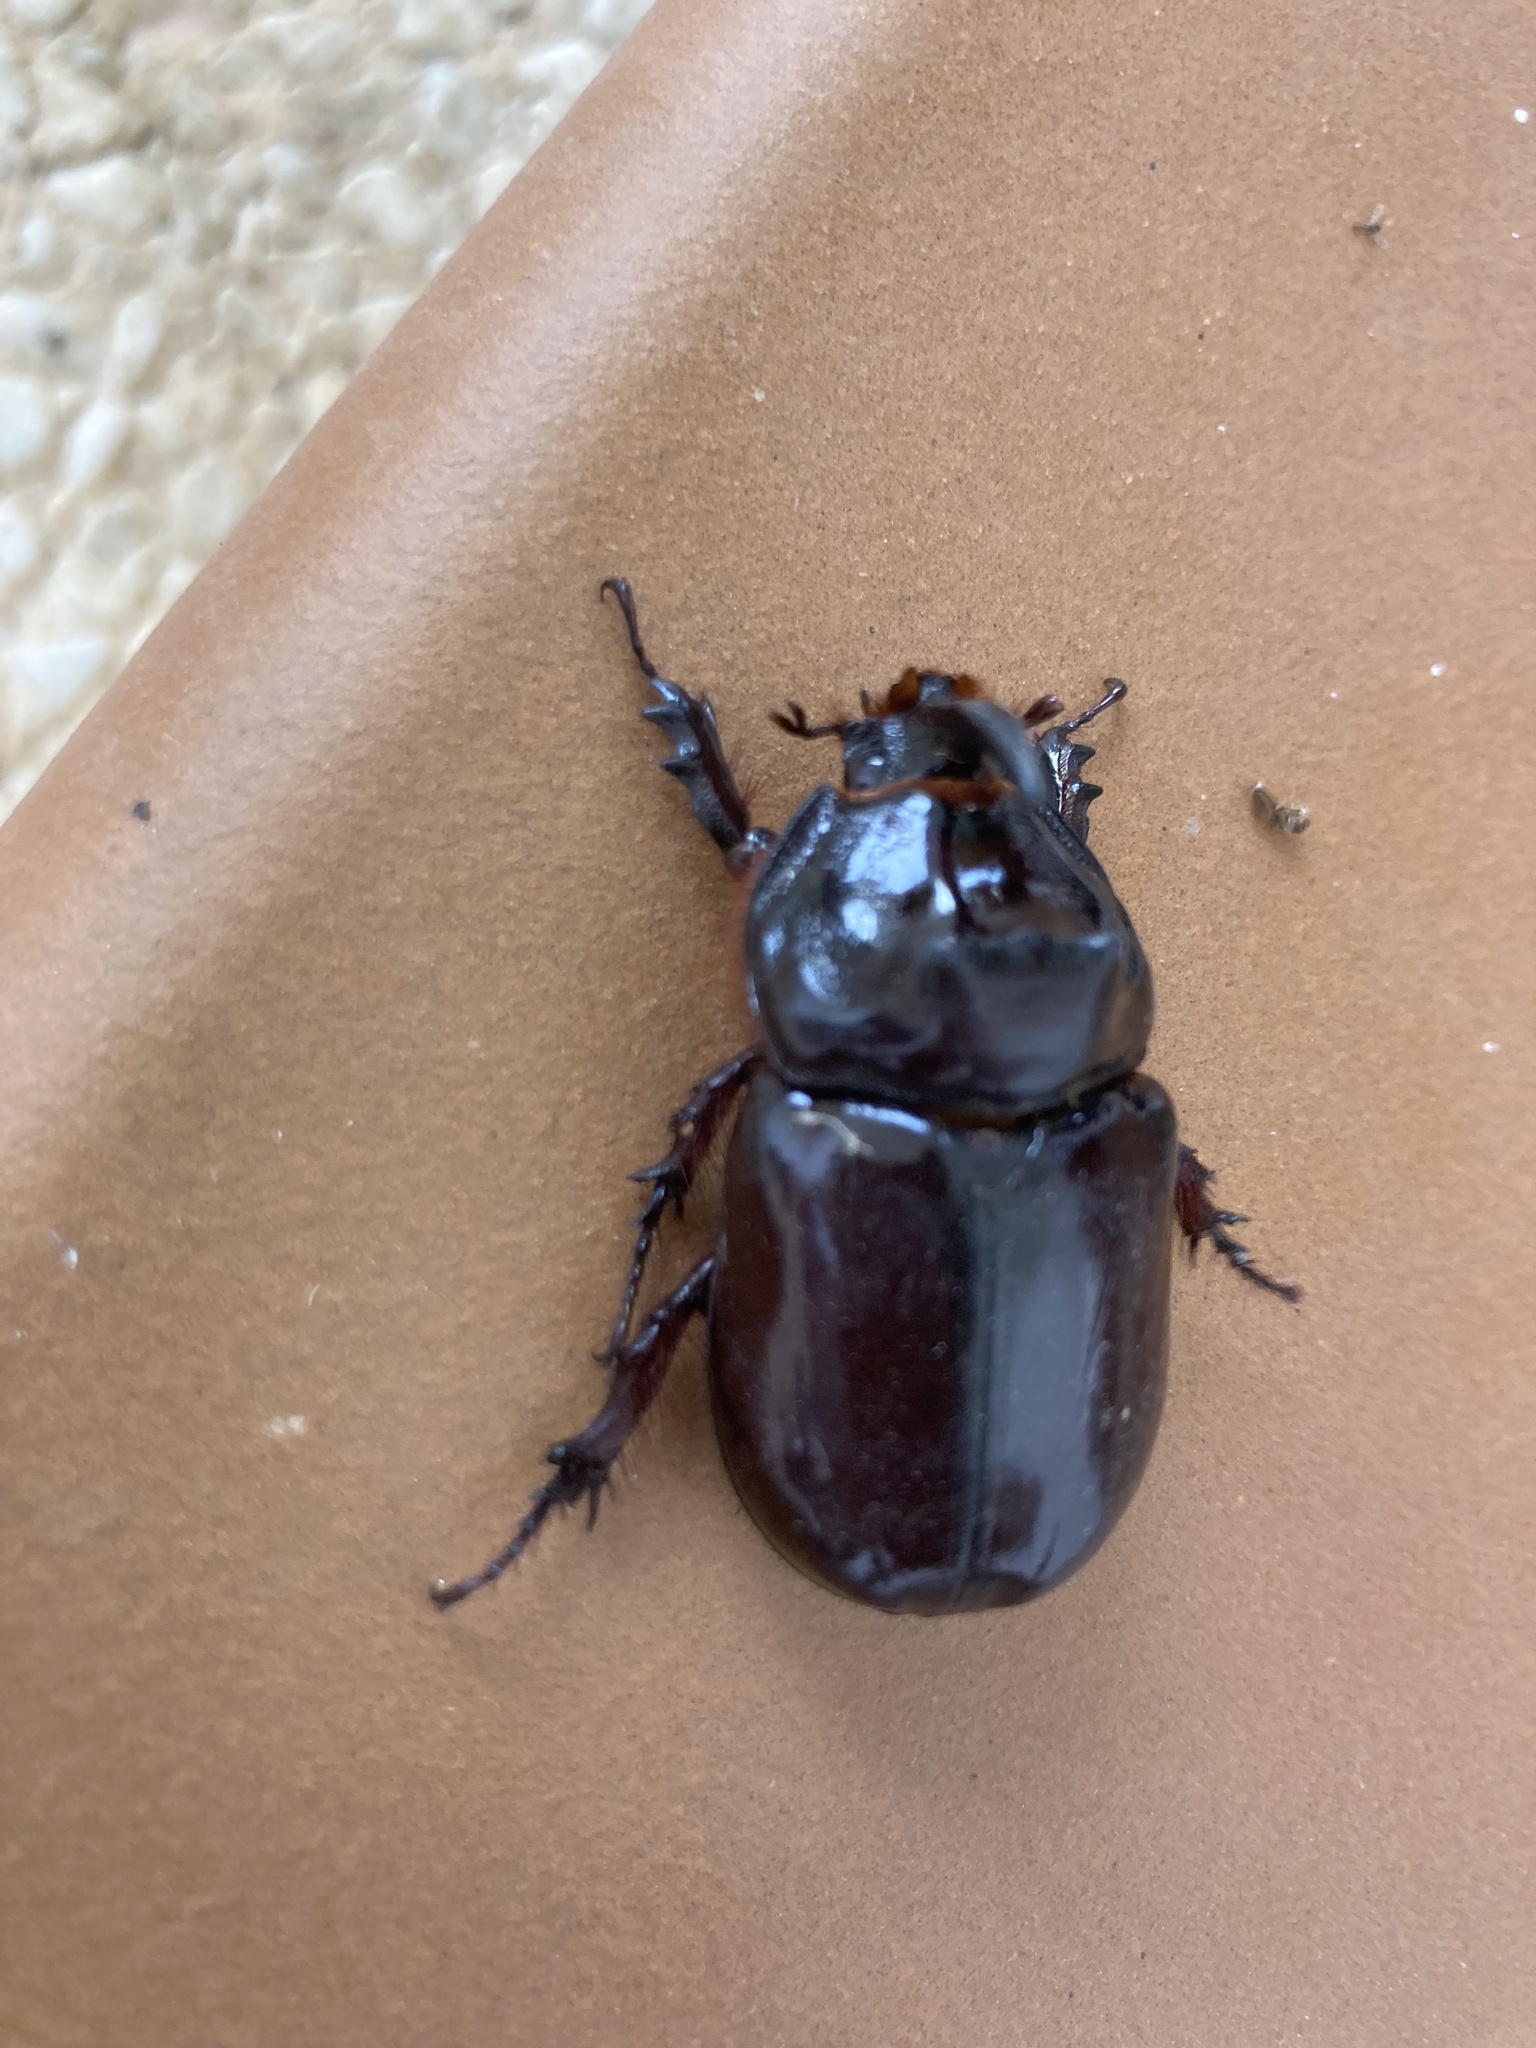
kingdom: Animalia
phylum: Arthropoda
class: Insecta
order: Coleoptera
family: Scarabaeidae
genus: Oryctes
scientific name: Oryctes nasicornis
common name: European rhinoceros beetle
